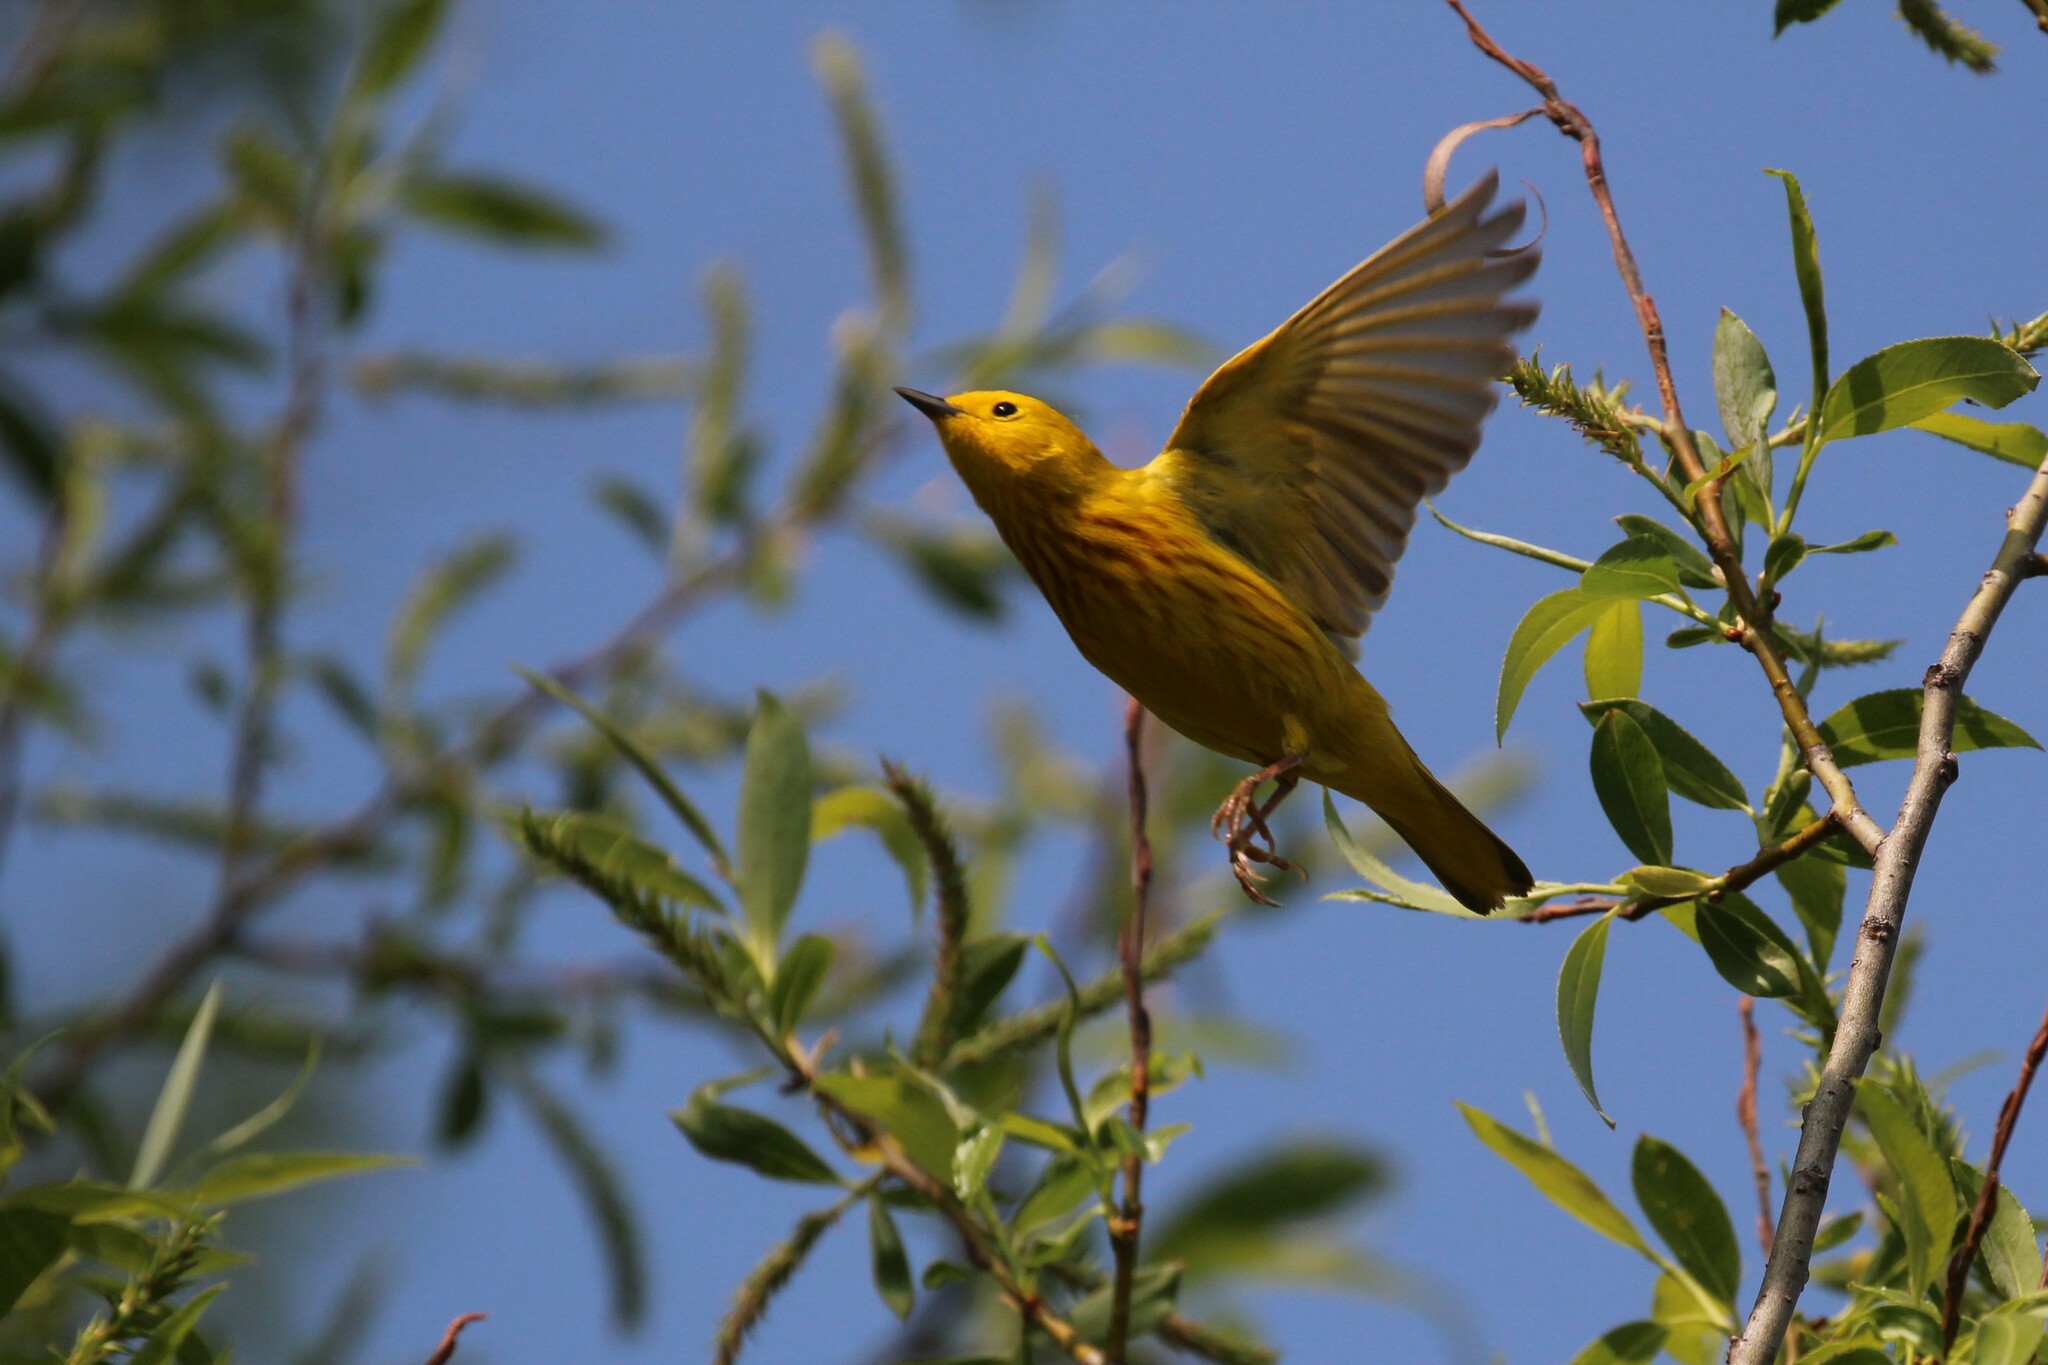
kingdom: Animalia
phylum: Chordata
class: Aves
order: Passeriformes
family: Parulidae
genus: Setophaga
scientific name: Setophaga petechia
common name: Yellow warbler
